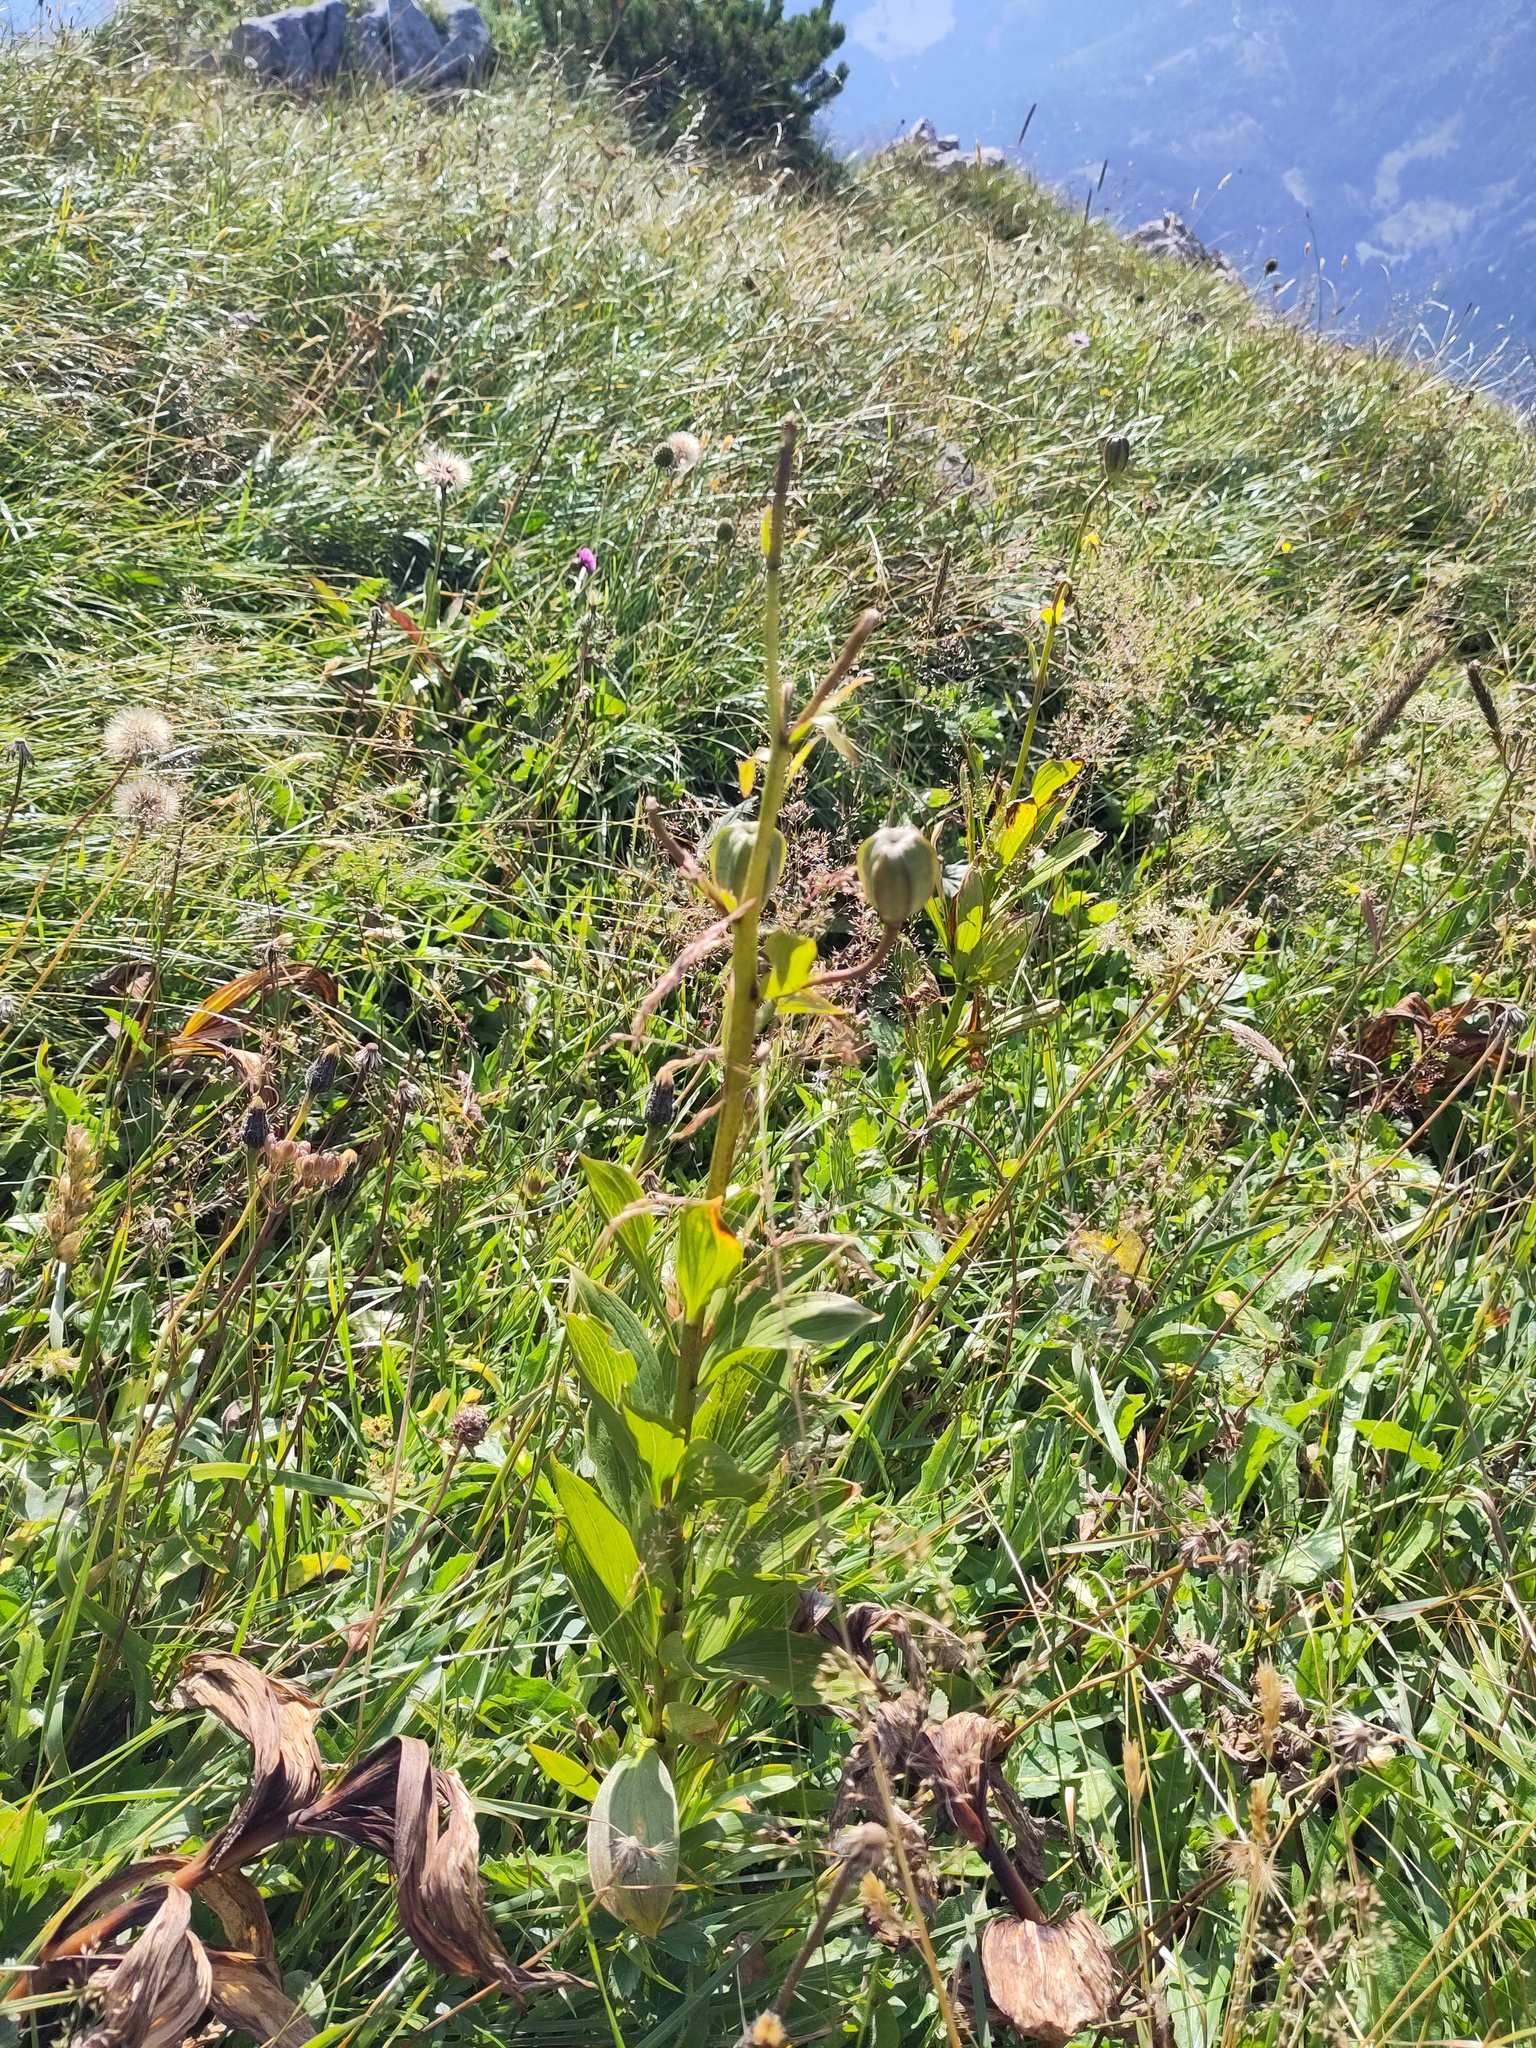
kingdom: Plantae
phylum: Tracheophyta
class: Liliopsida
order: Liliales
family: Liliaceae
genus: Lilium
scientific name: Lilium martagon
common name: Martagon lily
